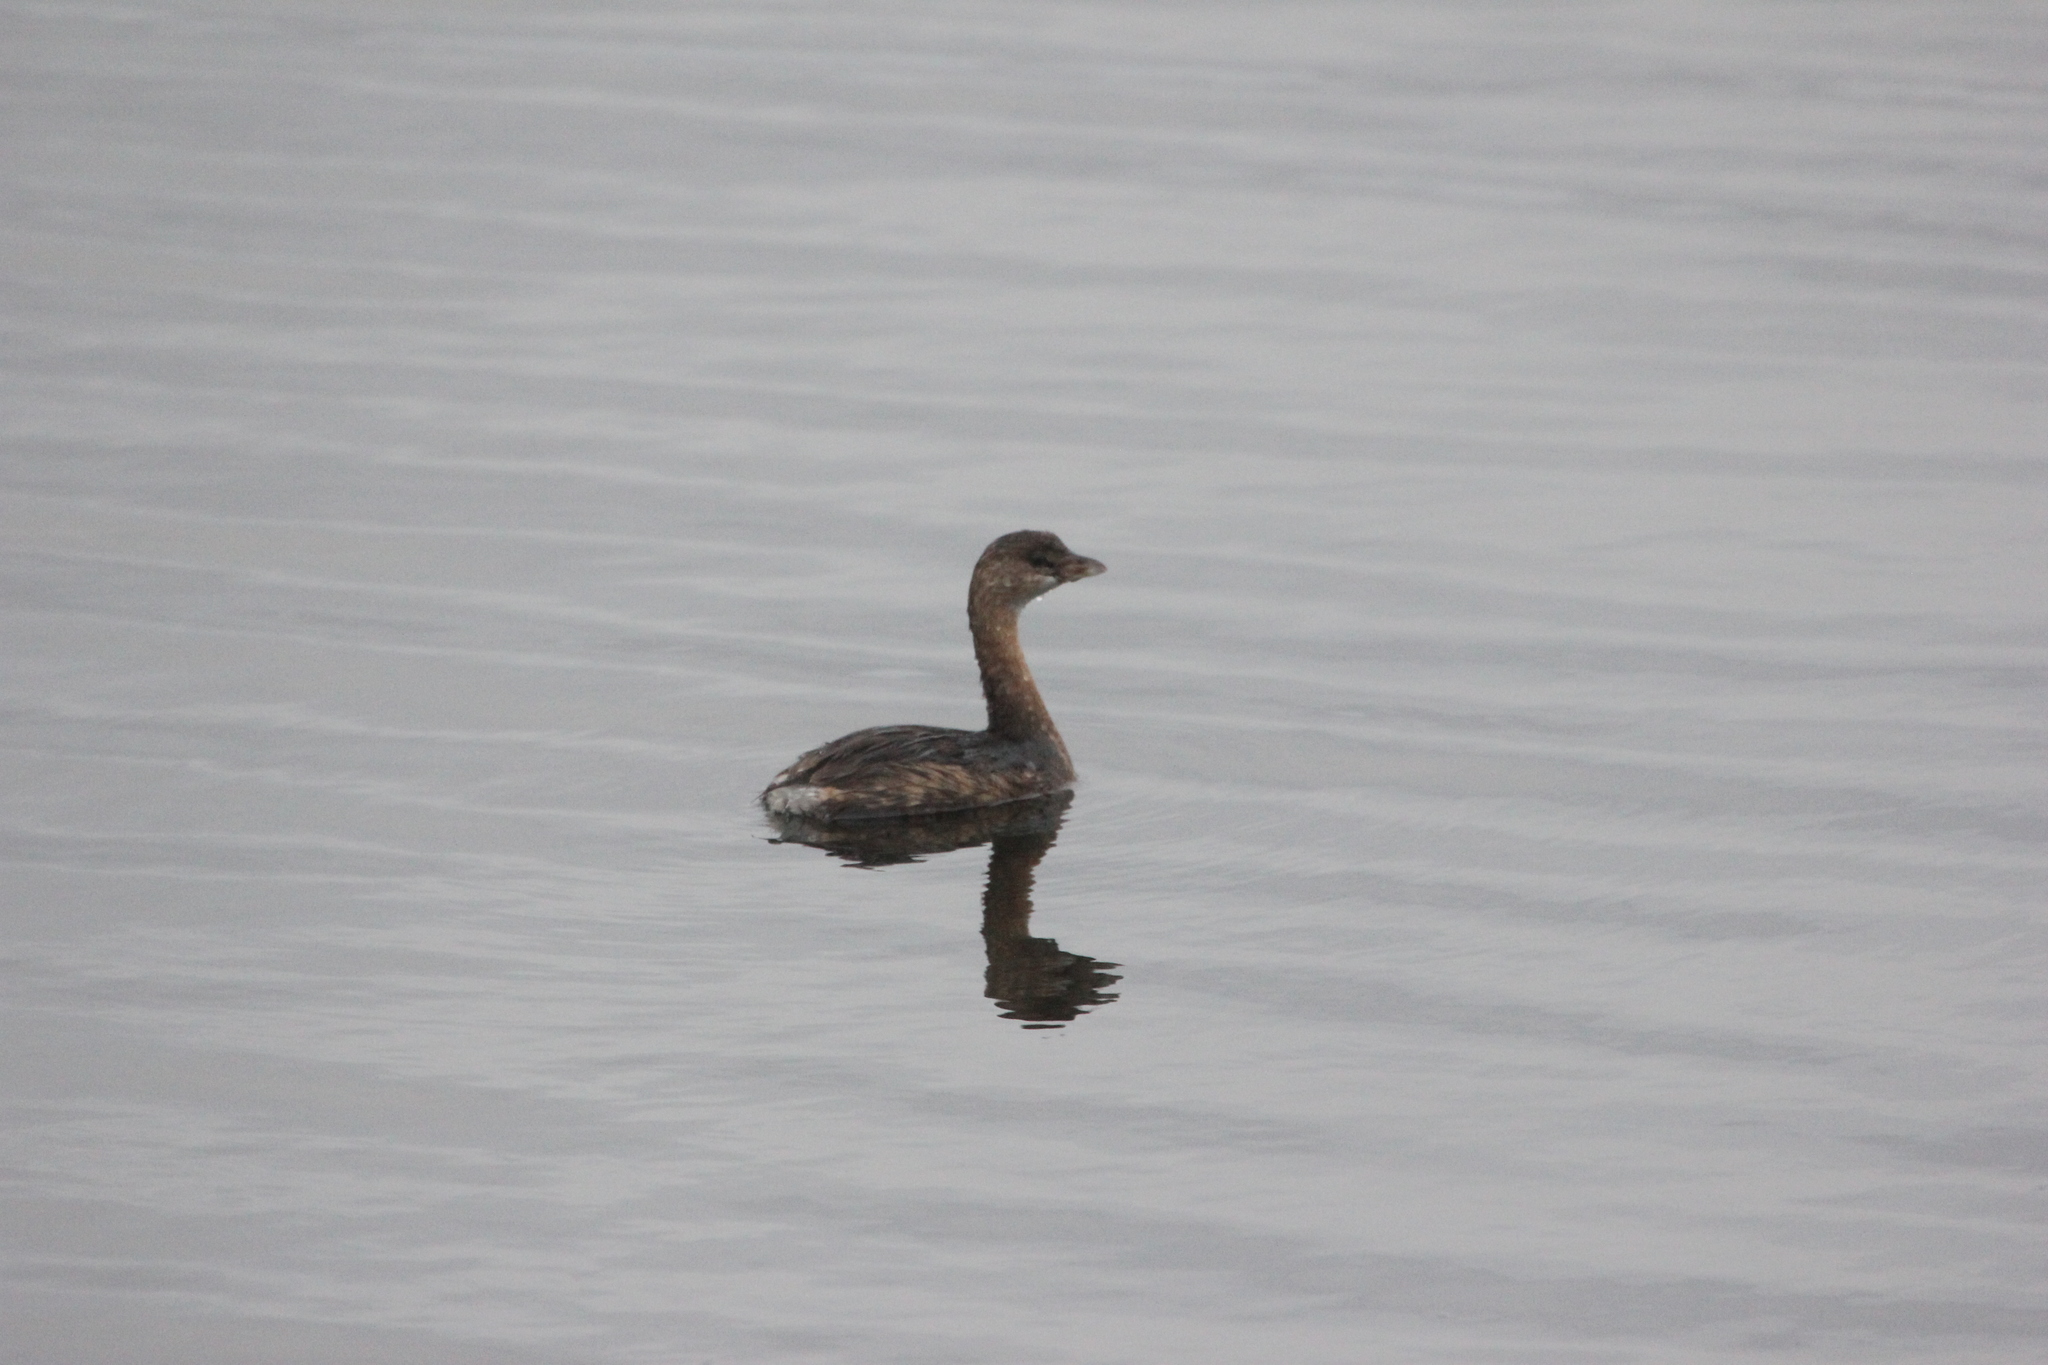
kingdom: Animalia
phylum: Chordata
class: Aves
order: Podicipediformes
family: Podicipedidae
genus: Podilymbus
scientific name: Podilymbus podiceps
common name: Pied-billed grebe
